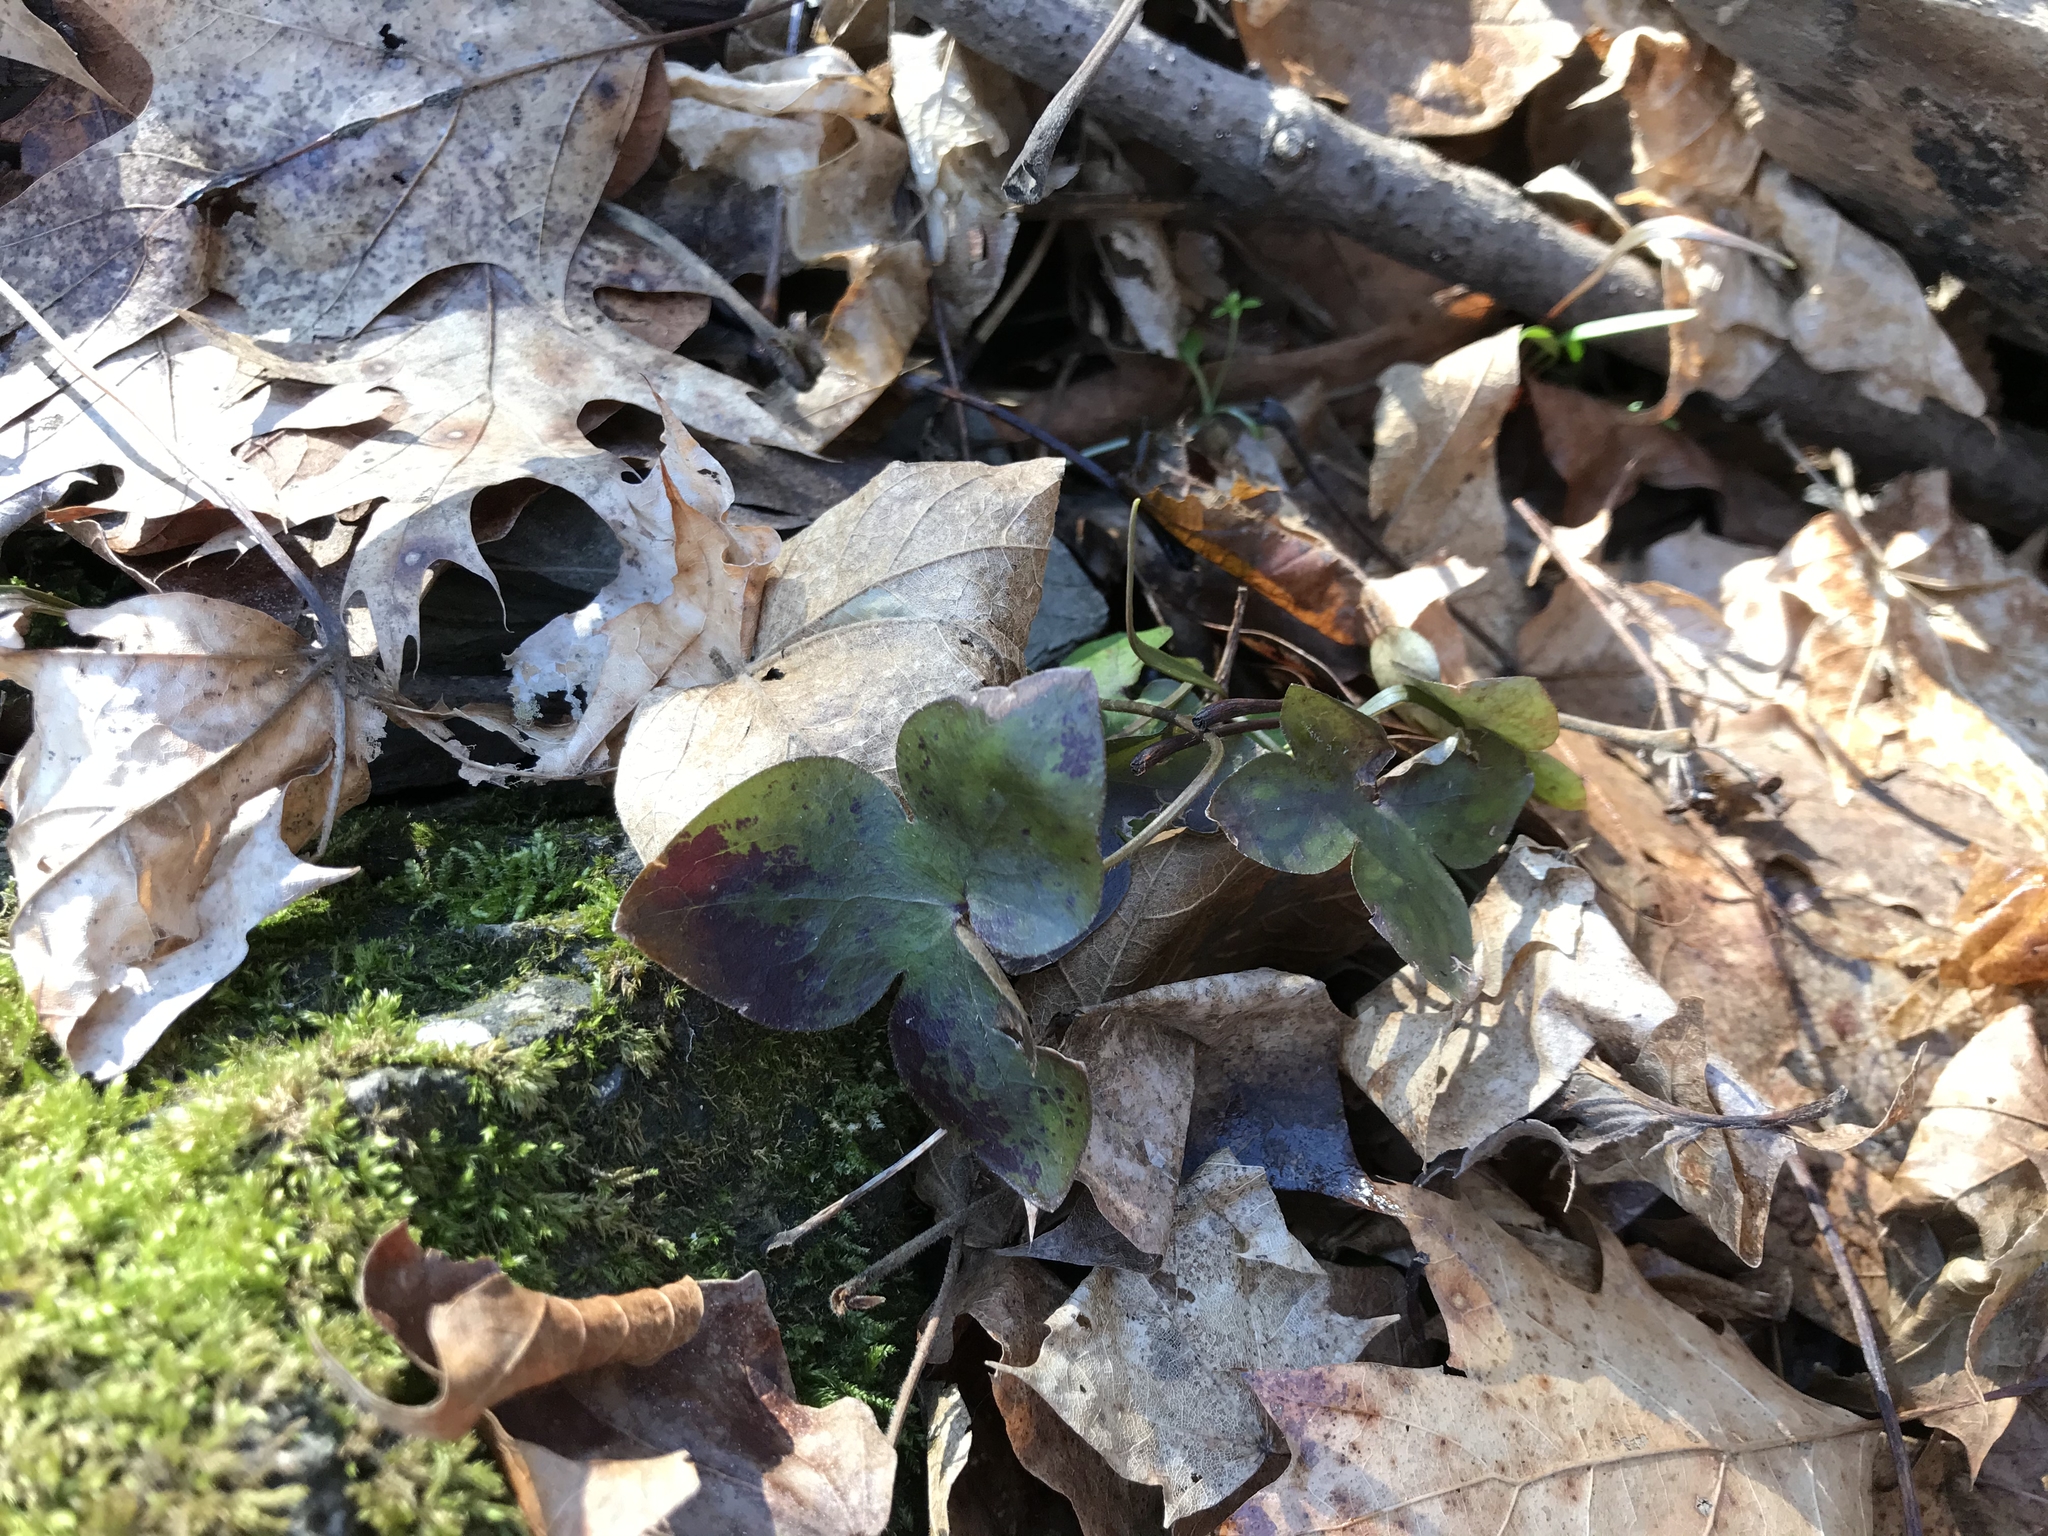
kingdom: Plantae
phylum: Tracheophyta
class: Magnoliopsida
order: Ranunculales
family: Ranunculaceae
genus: Hepatica
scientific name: Hepatica acutiloba
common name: Sharp-lobed hepatica
